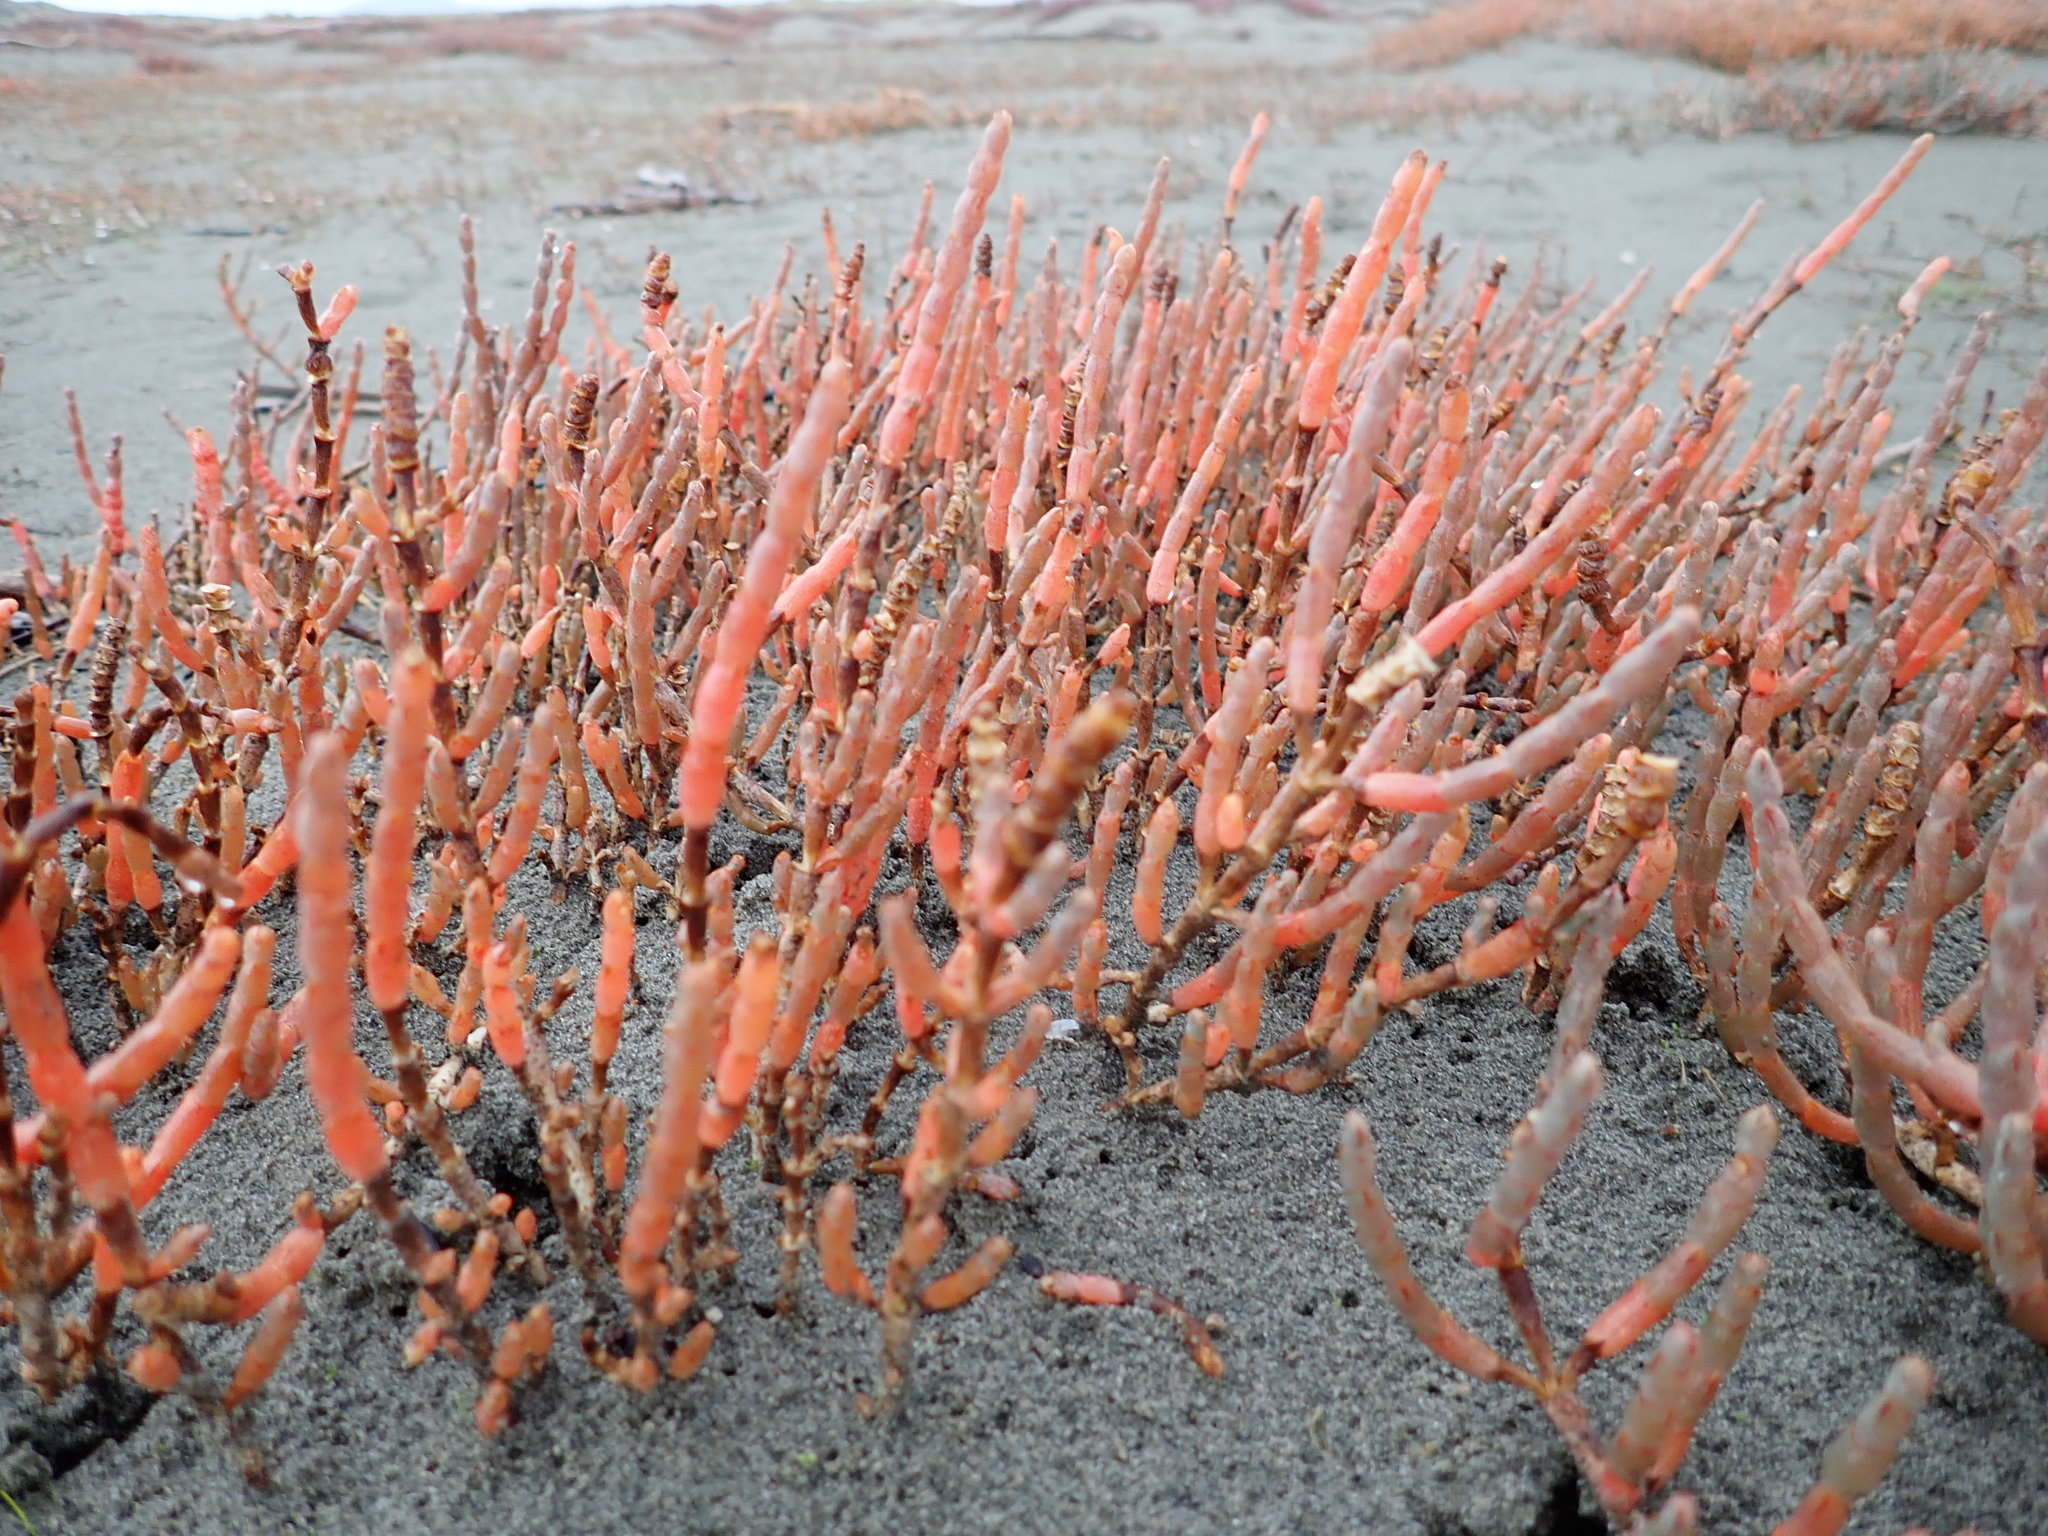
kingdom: Plantae
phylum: Tracheophyta
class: Magnoliopsida
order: Caryophyllales
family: Amaranthaceae
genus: Salicornia
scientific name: Salicornia quinqueflora
